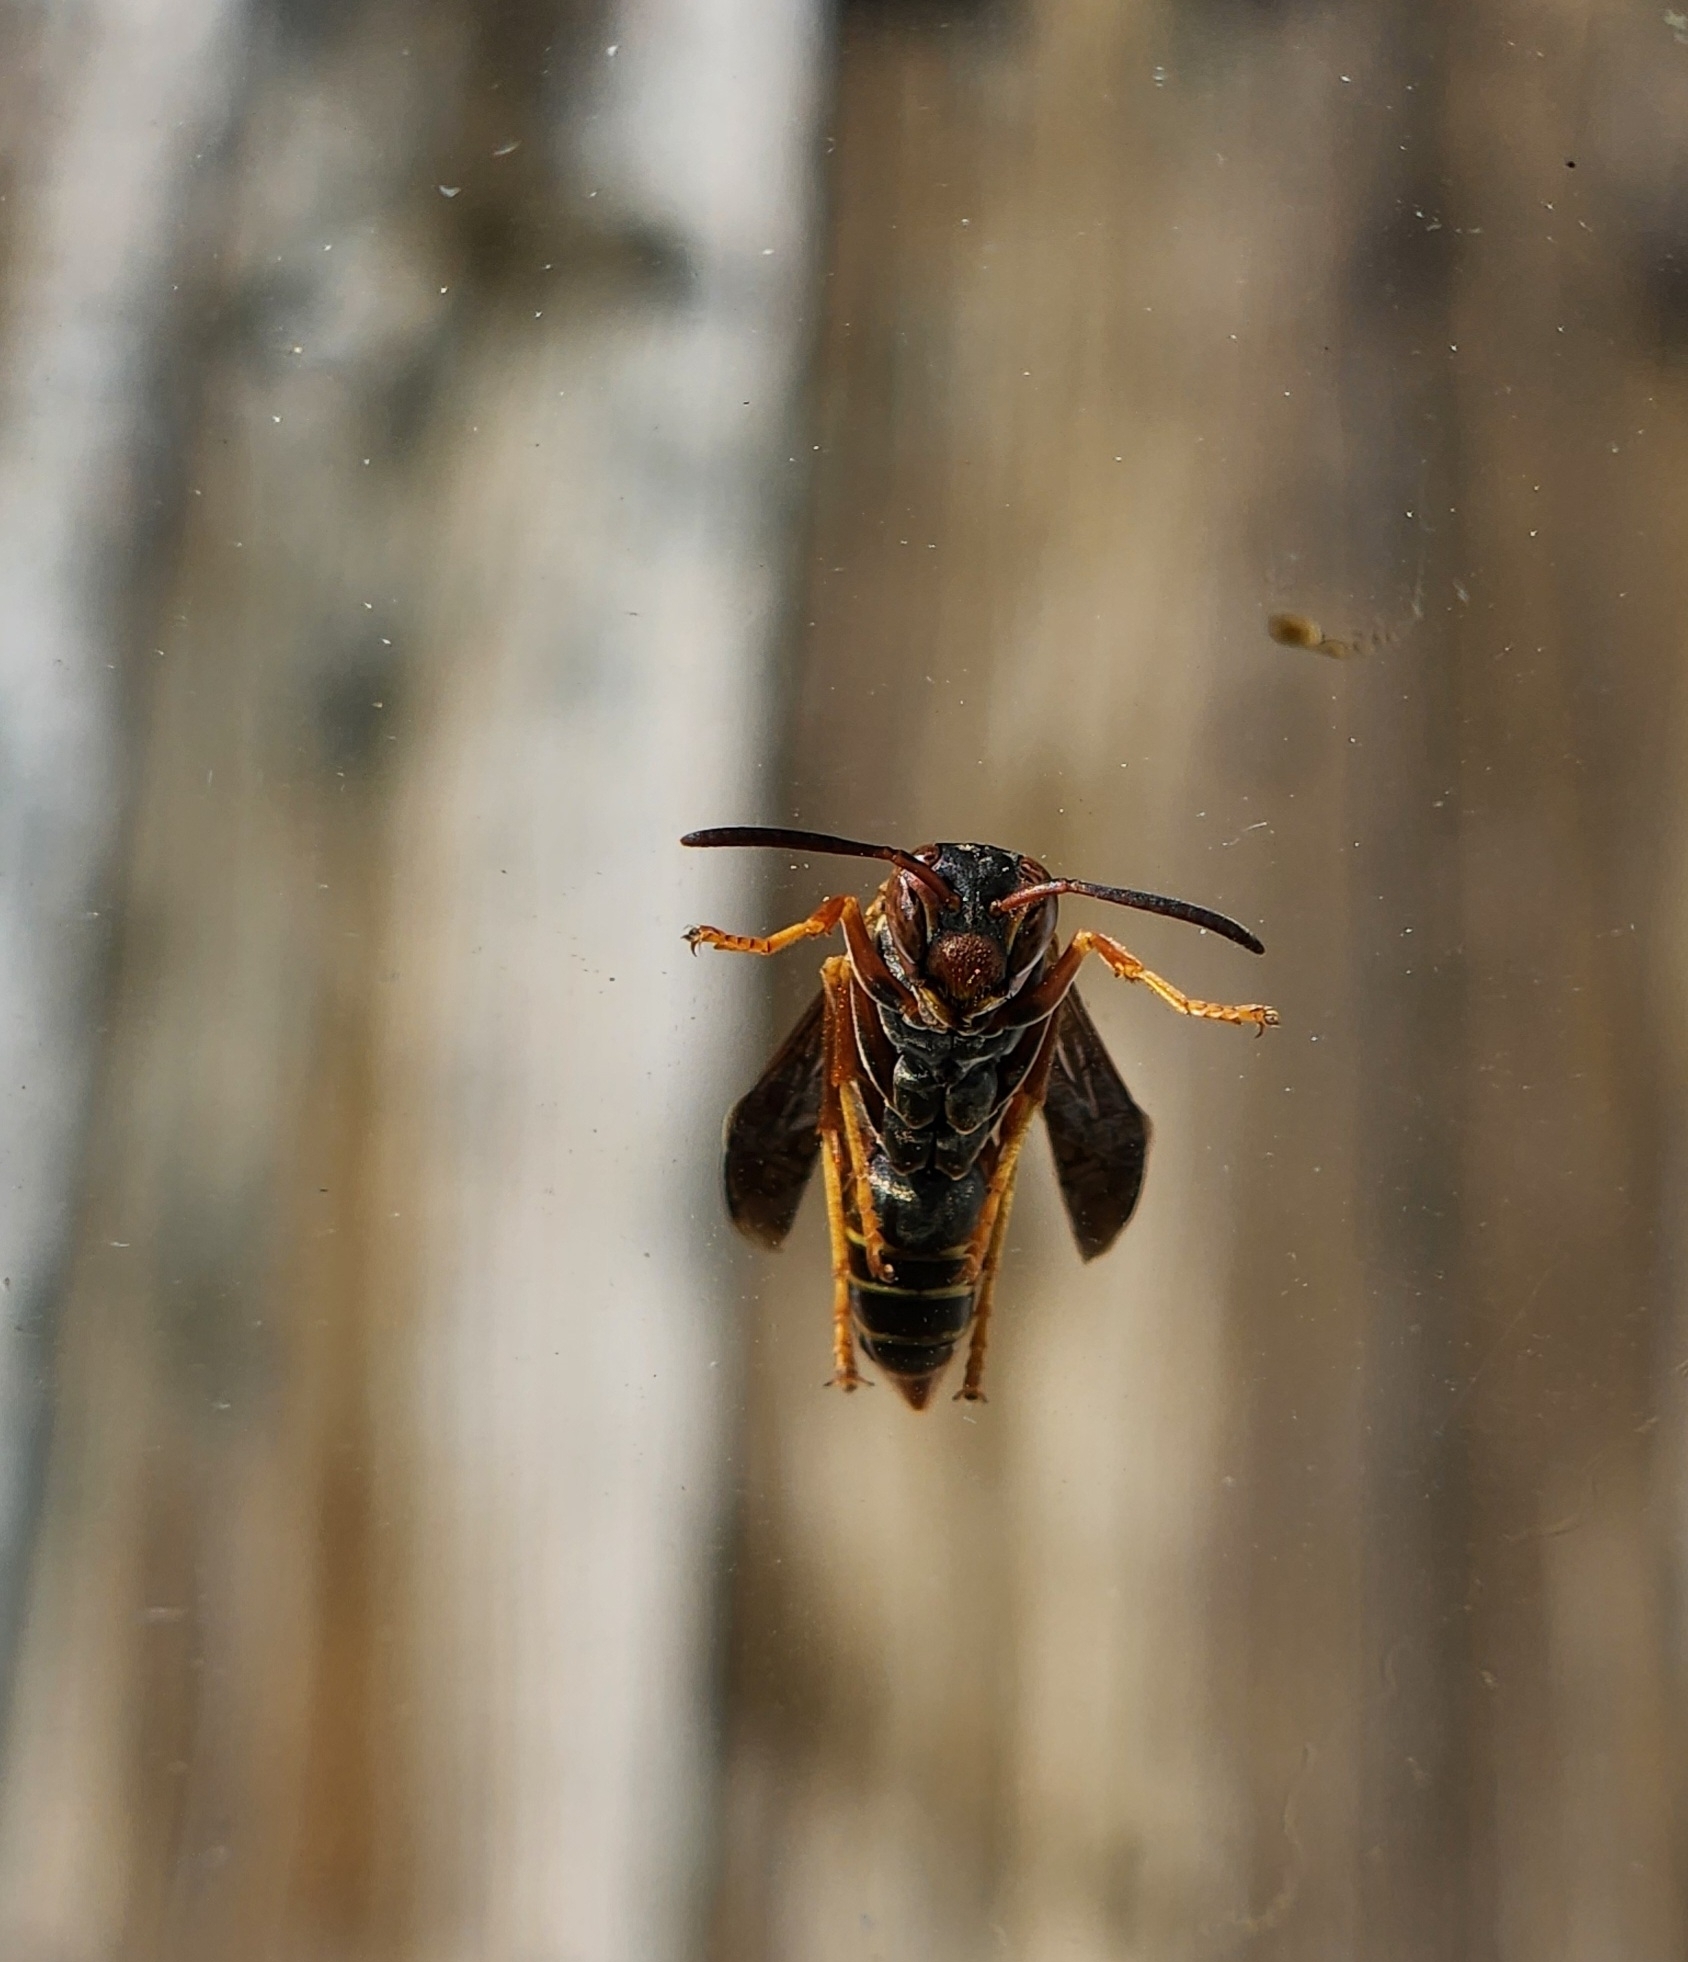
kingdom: Animalia
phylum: Arthropoda
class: Insecta
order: Hymenoptera
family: Eumenidae
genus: Polistes
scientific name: Polistes fuscatus
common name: Dark paper wasp
